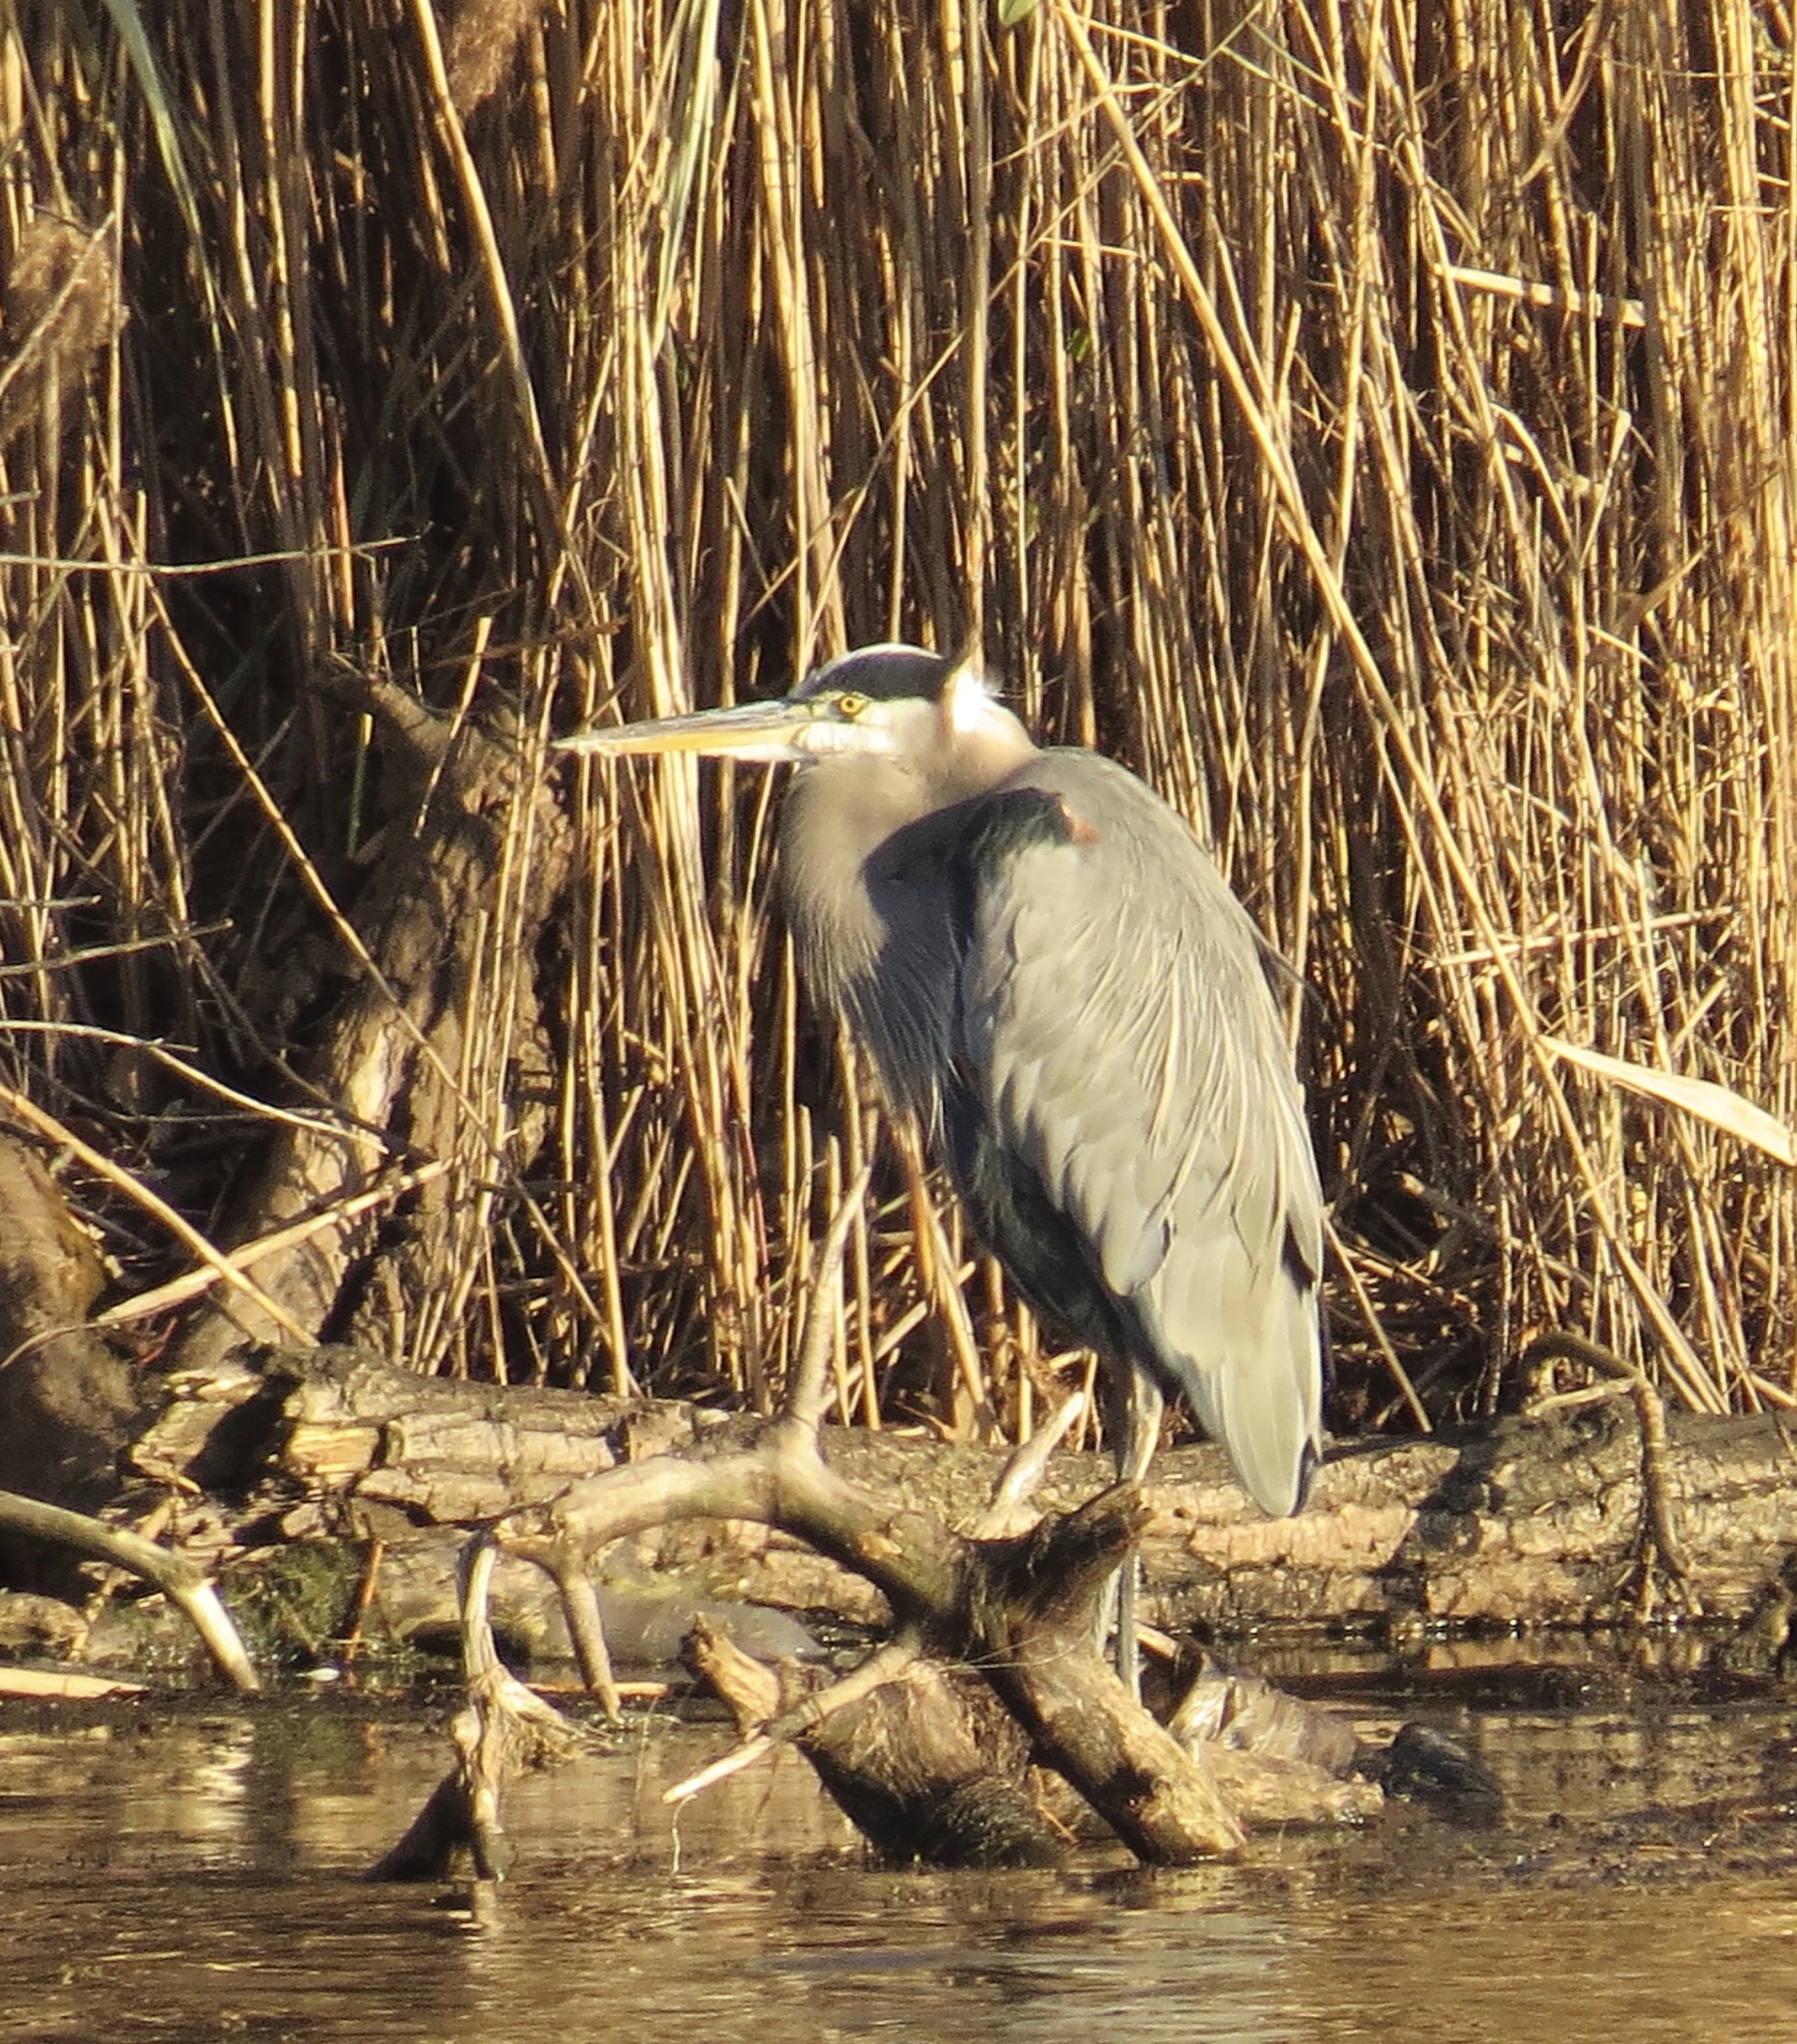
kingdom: Animalia
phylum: Chordata
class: Aves
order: Pelecaniformes
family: Ardeidae
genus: Ardea
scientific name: Ardea herodias
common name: Great blue heron
